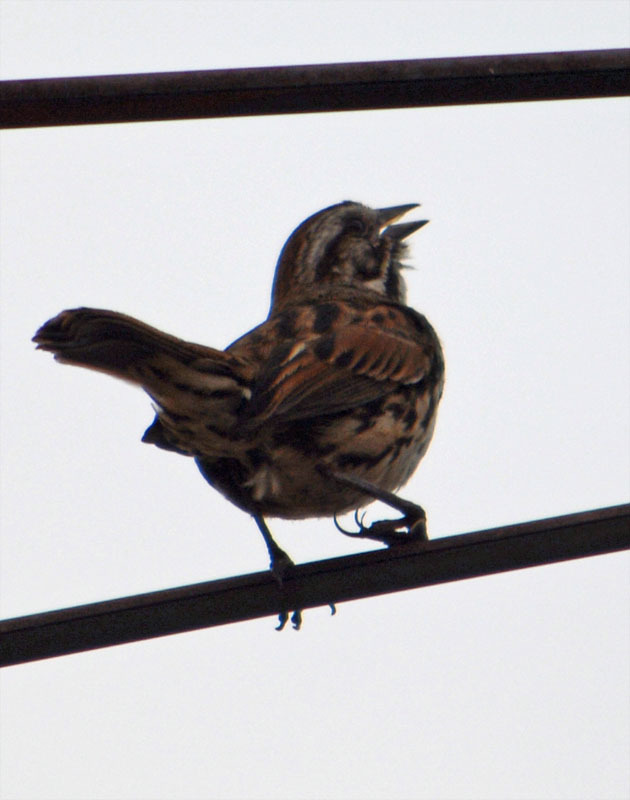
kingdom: Animalia
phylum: Chordata
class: Aves
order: Passeriformes
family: Passerellidae
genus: Melospiza
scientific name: Melospiza melodia
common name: Song sparrow
